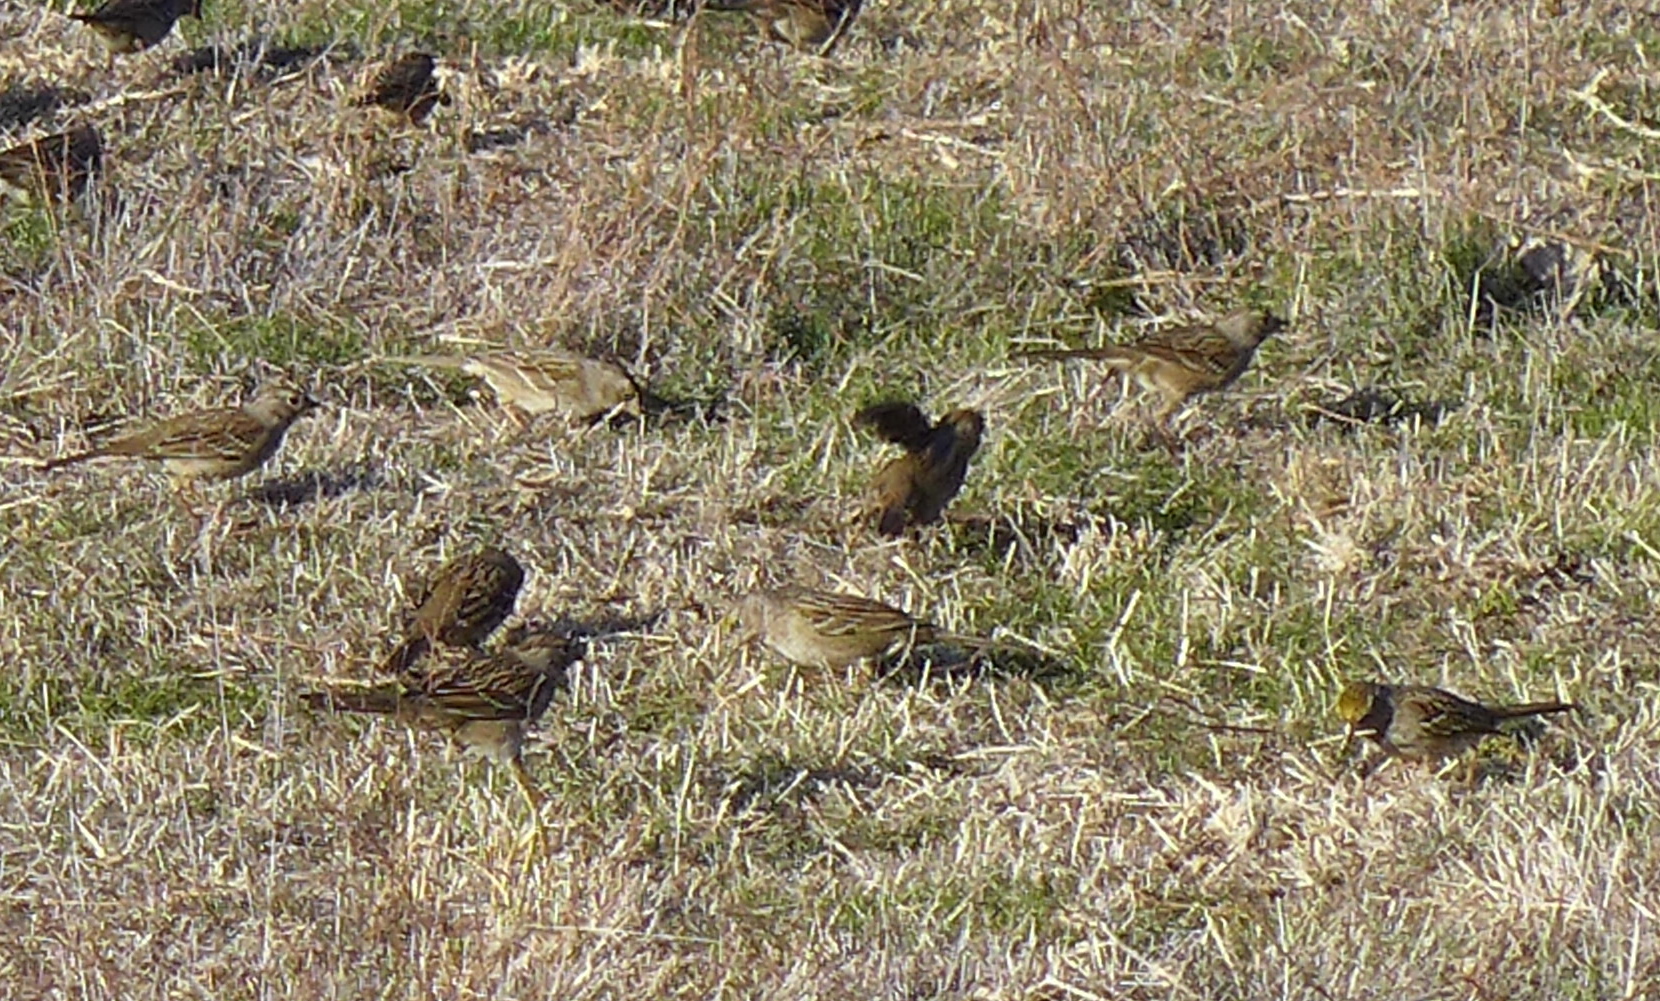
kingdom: Animalia
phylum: Chordata
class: Aves
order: Passeriformes
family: Passerellidae
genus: Zonotrichia
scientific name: Zonotrichia atricapilla
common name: Golden-crowned sparrow
